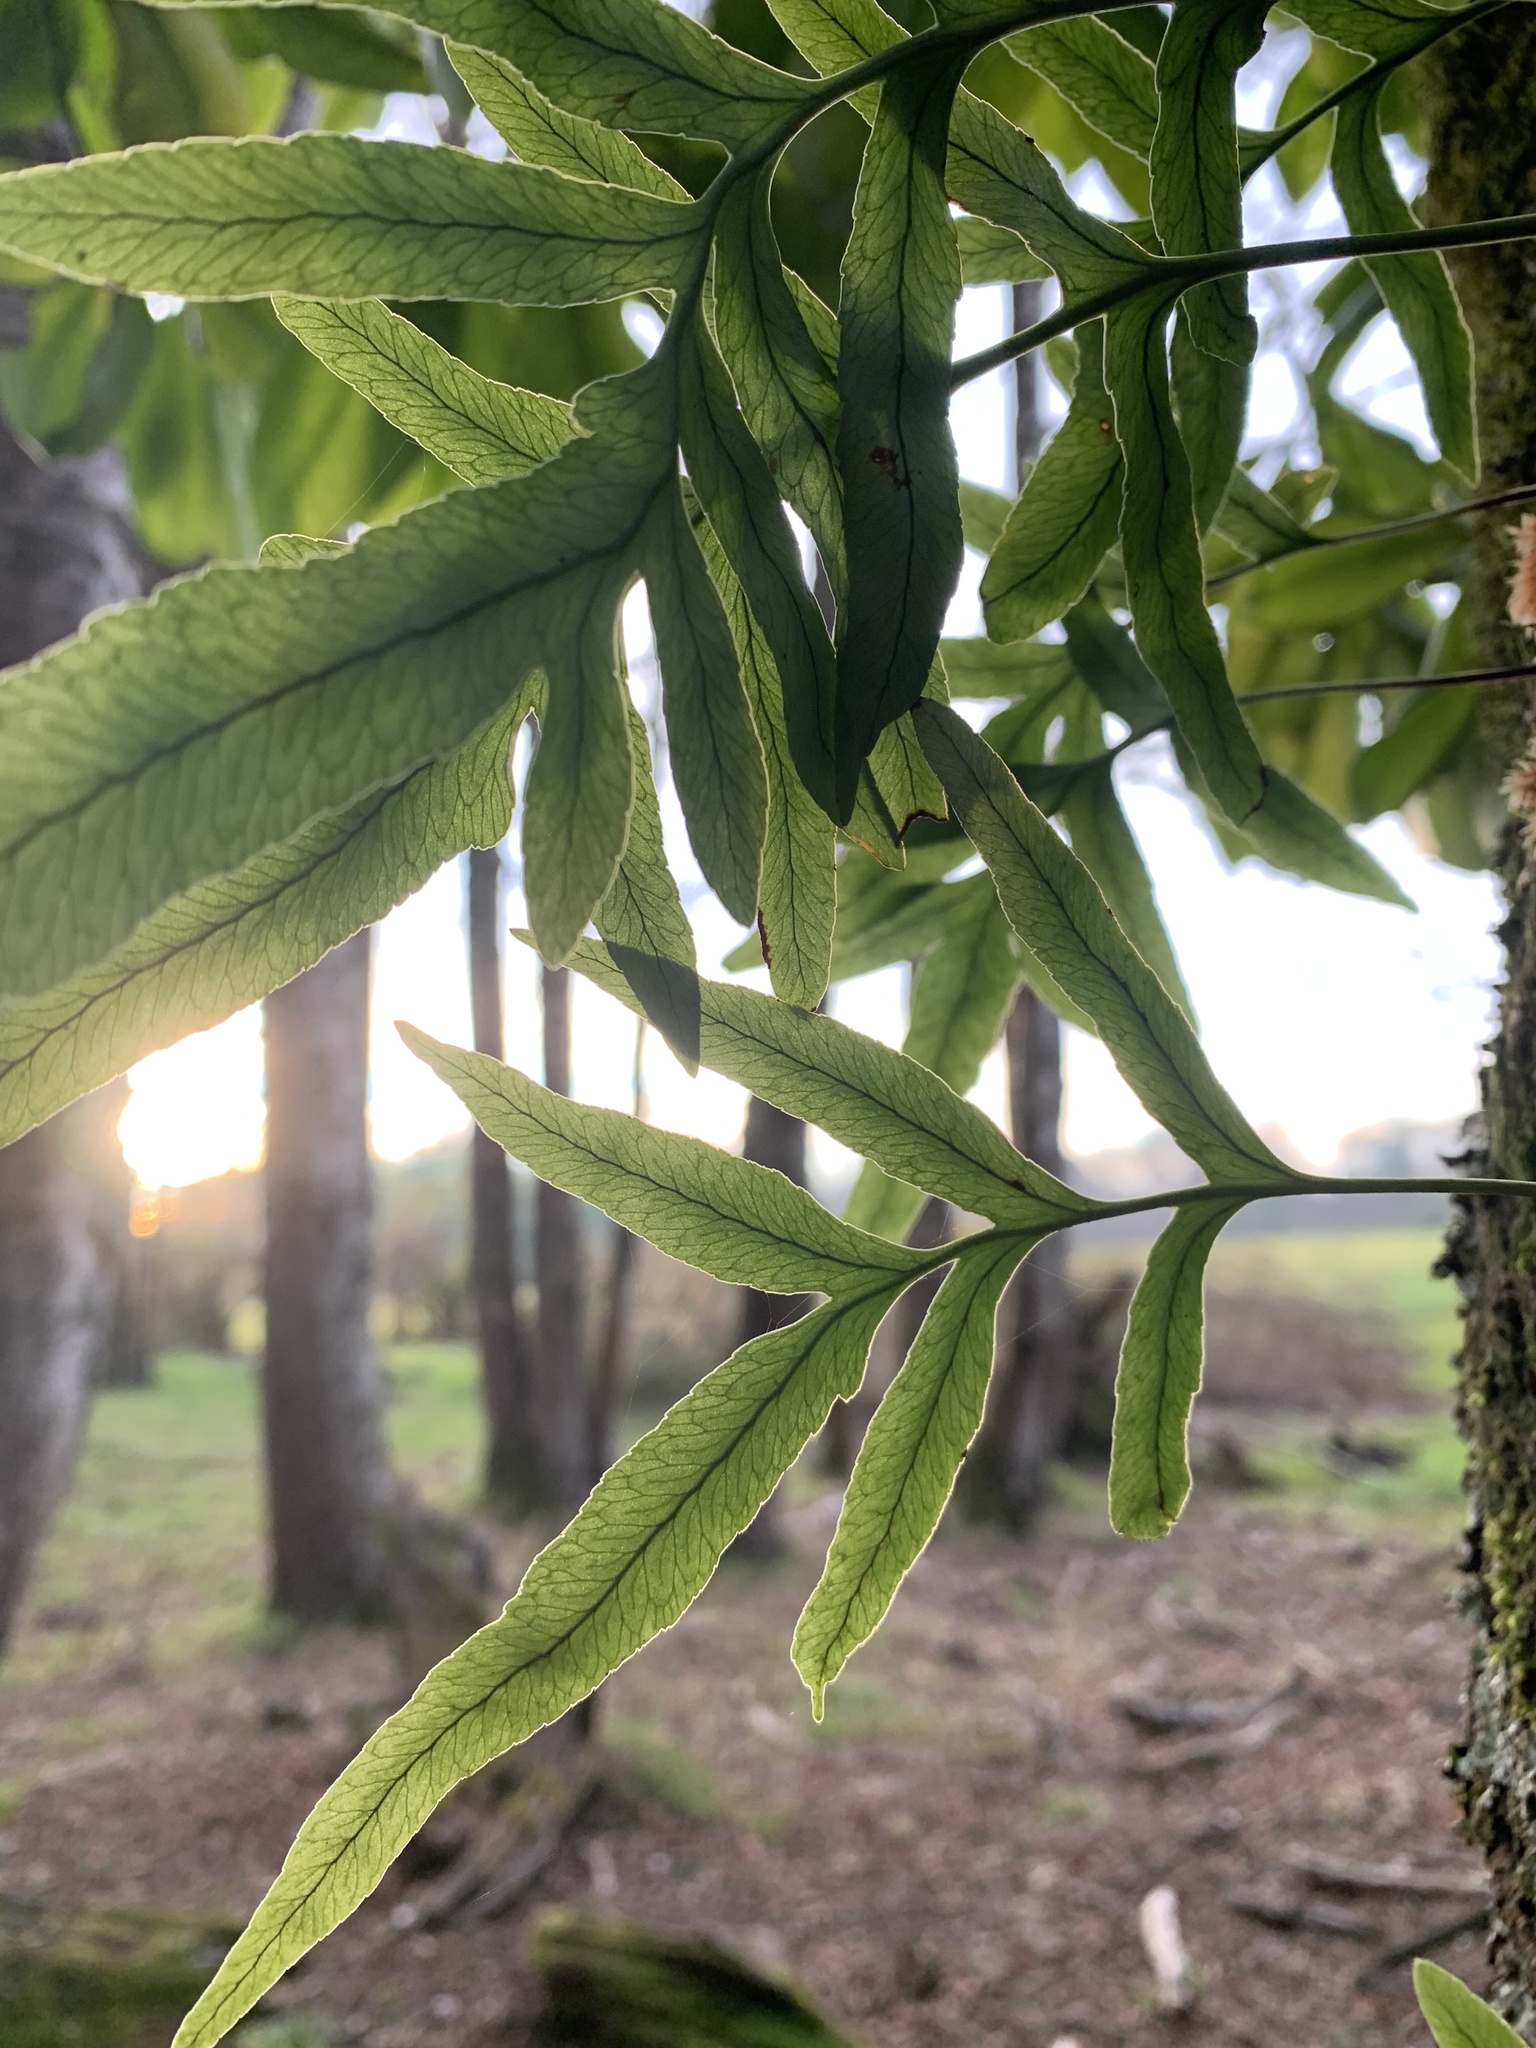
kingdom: Plantae
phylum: Tracheophyta
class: Polypodiopsida
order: Polypodiales
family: Polypodiaceae
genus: Synammia
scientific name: Synammia feuillei
